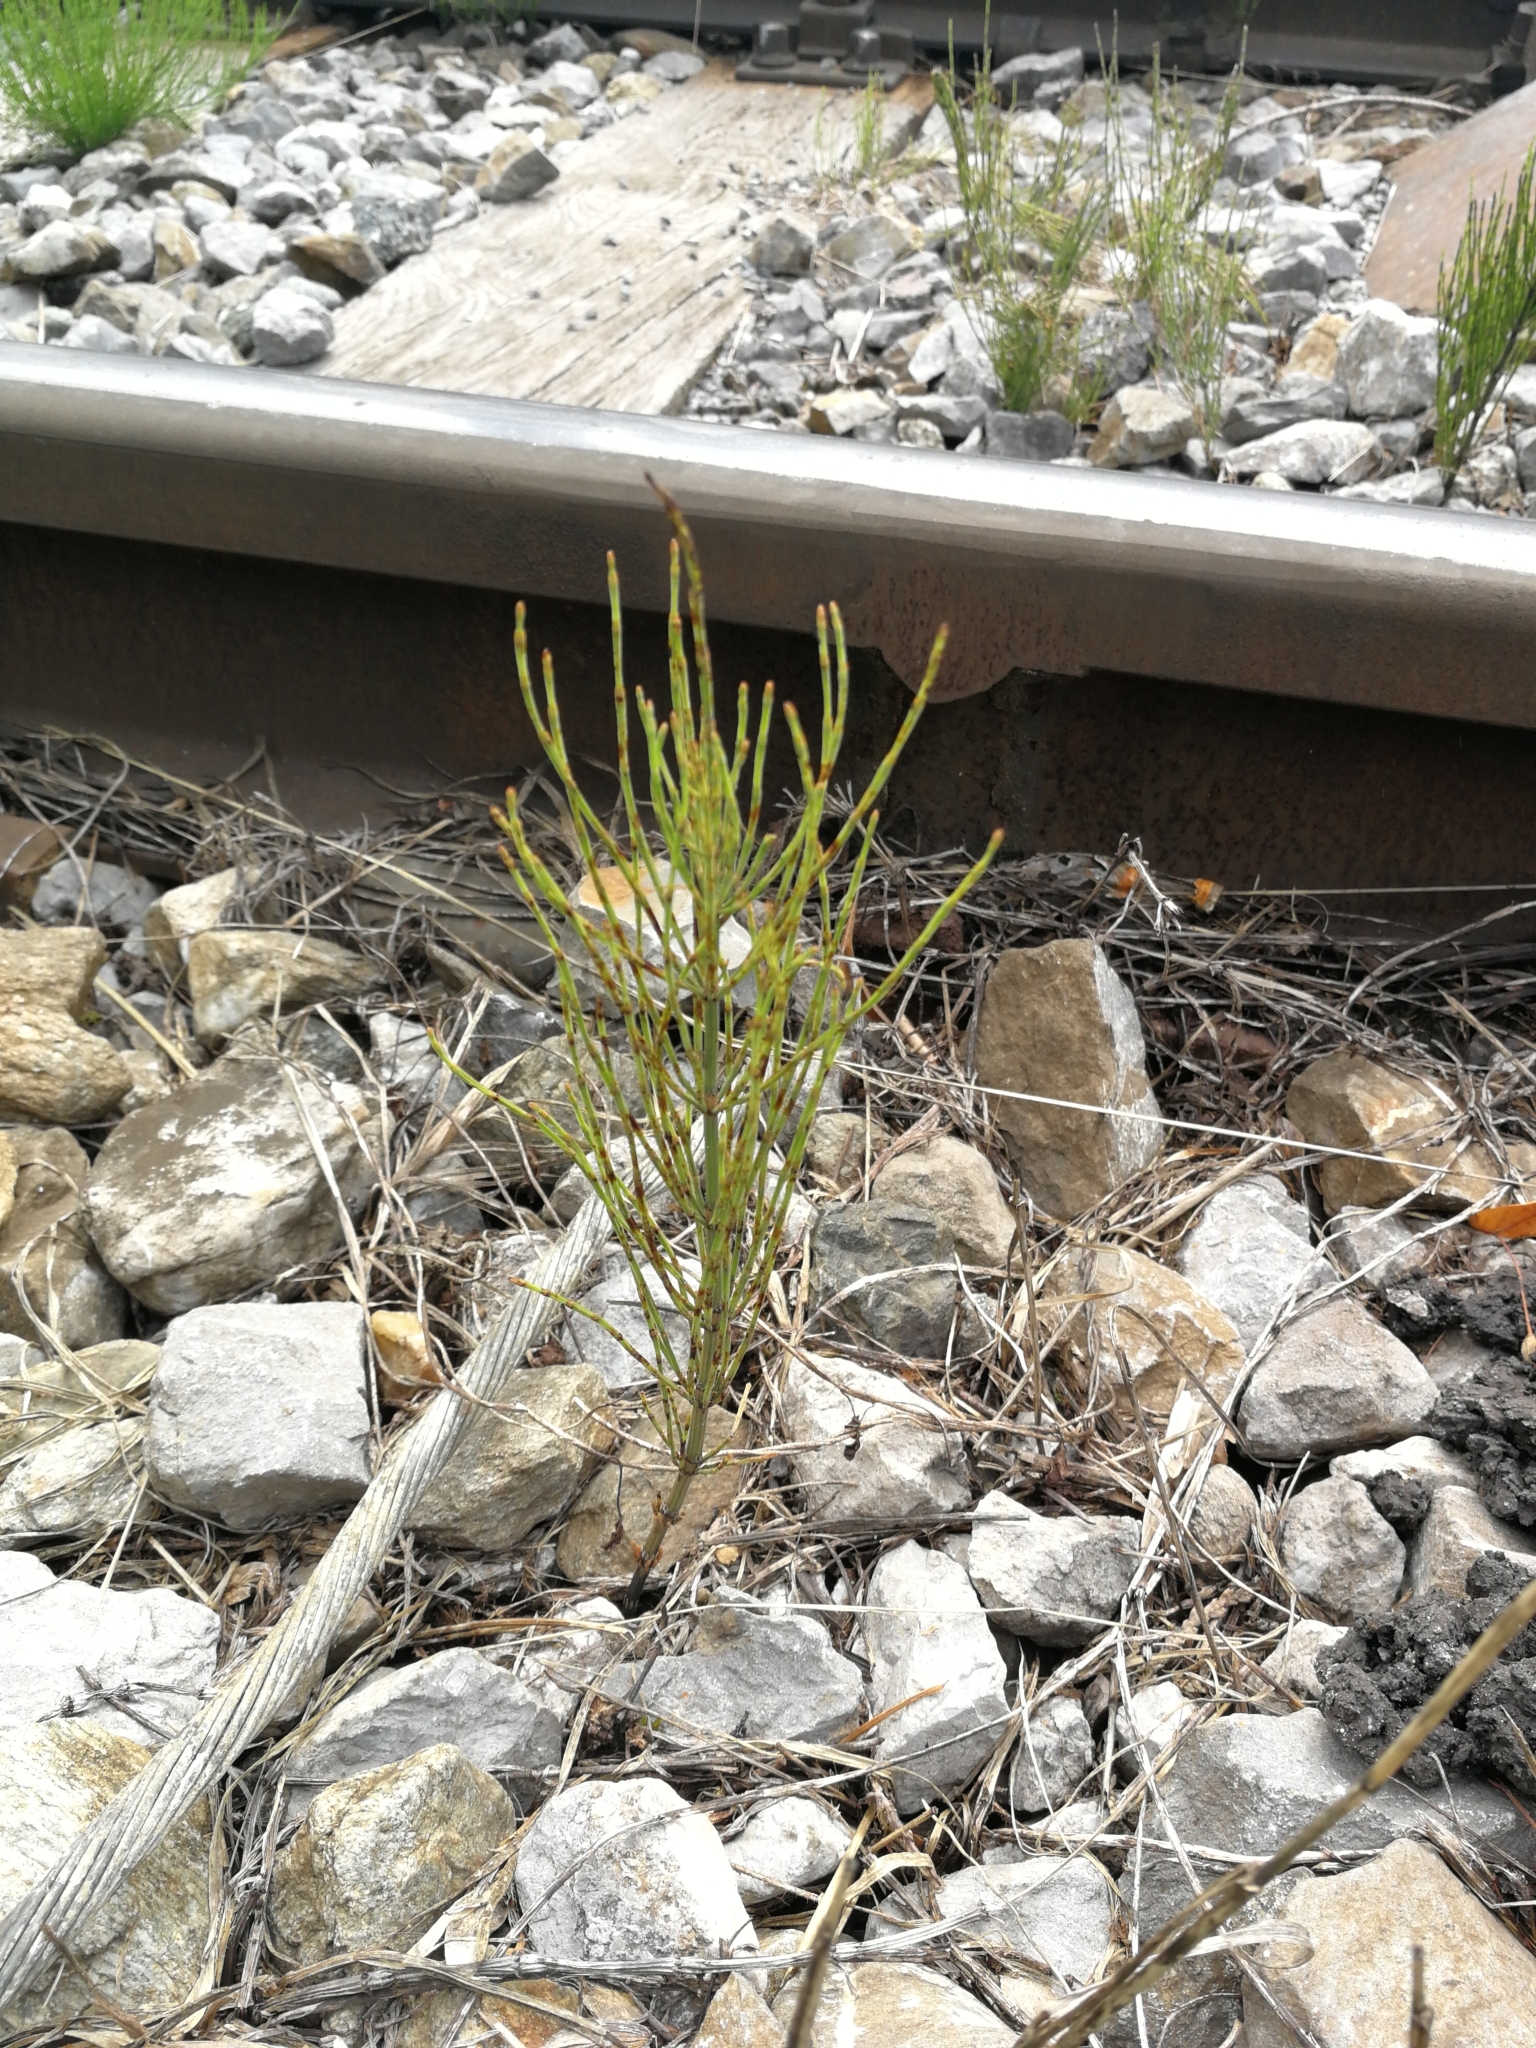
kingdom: Plantae
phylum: Tracheophyta
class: Polypodiopsida
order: Equisetales
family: Equisetaceae
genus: Equisetum
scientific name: Equisetum arvense
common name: Field horsetail
